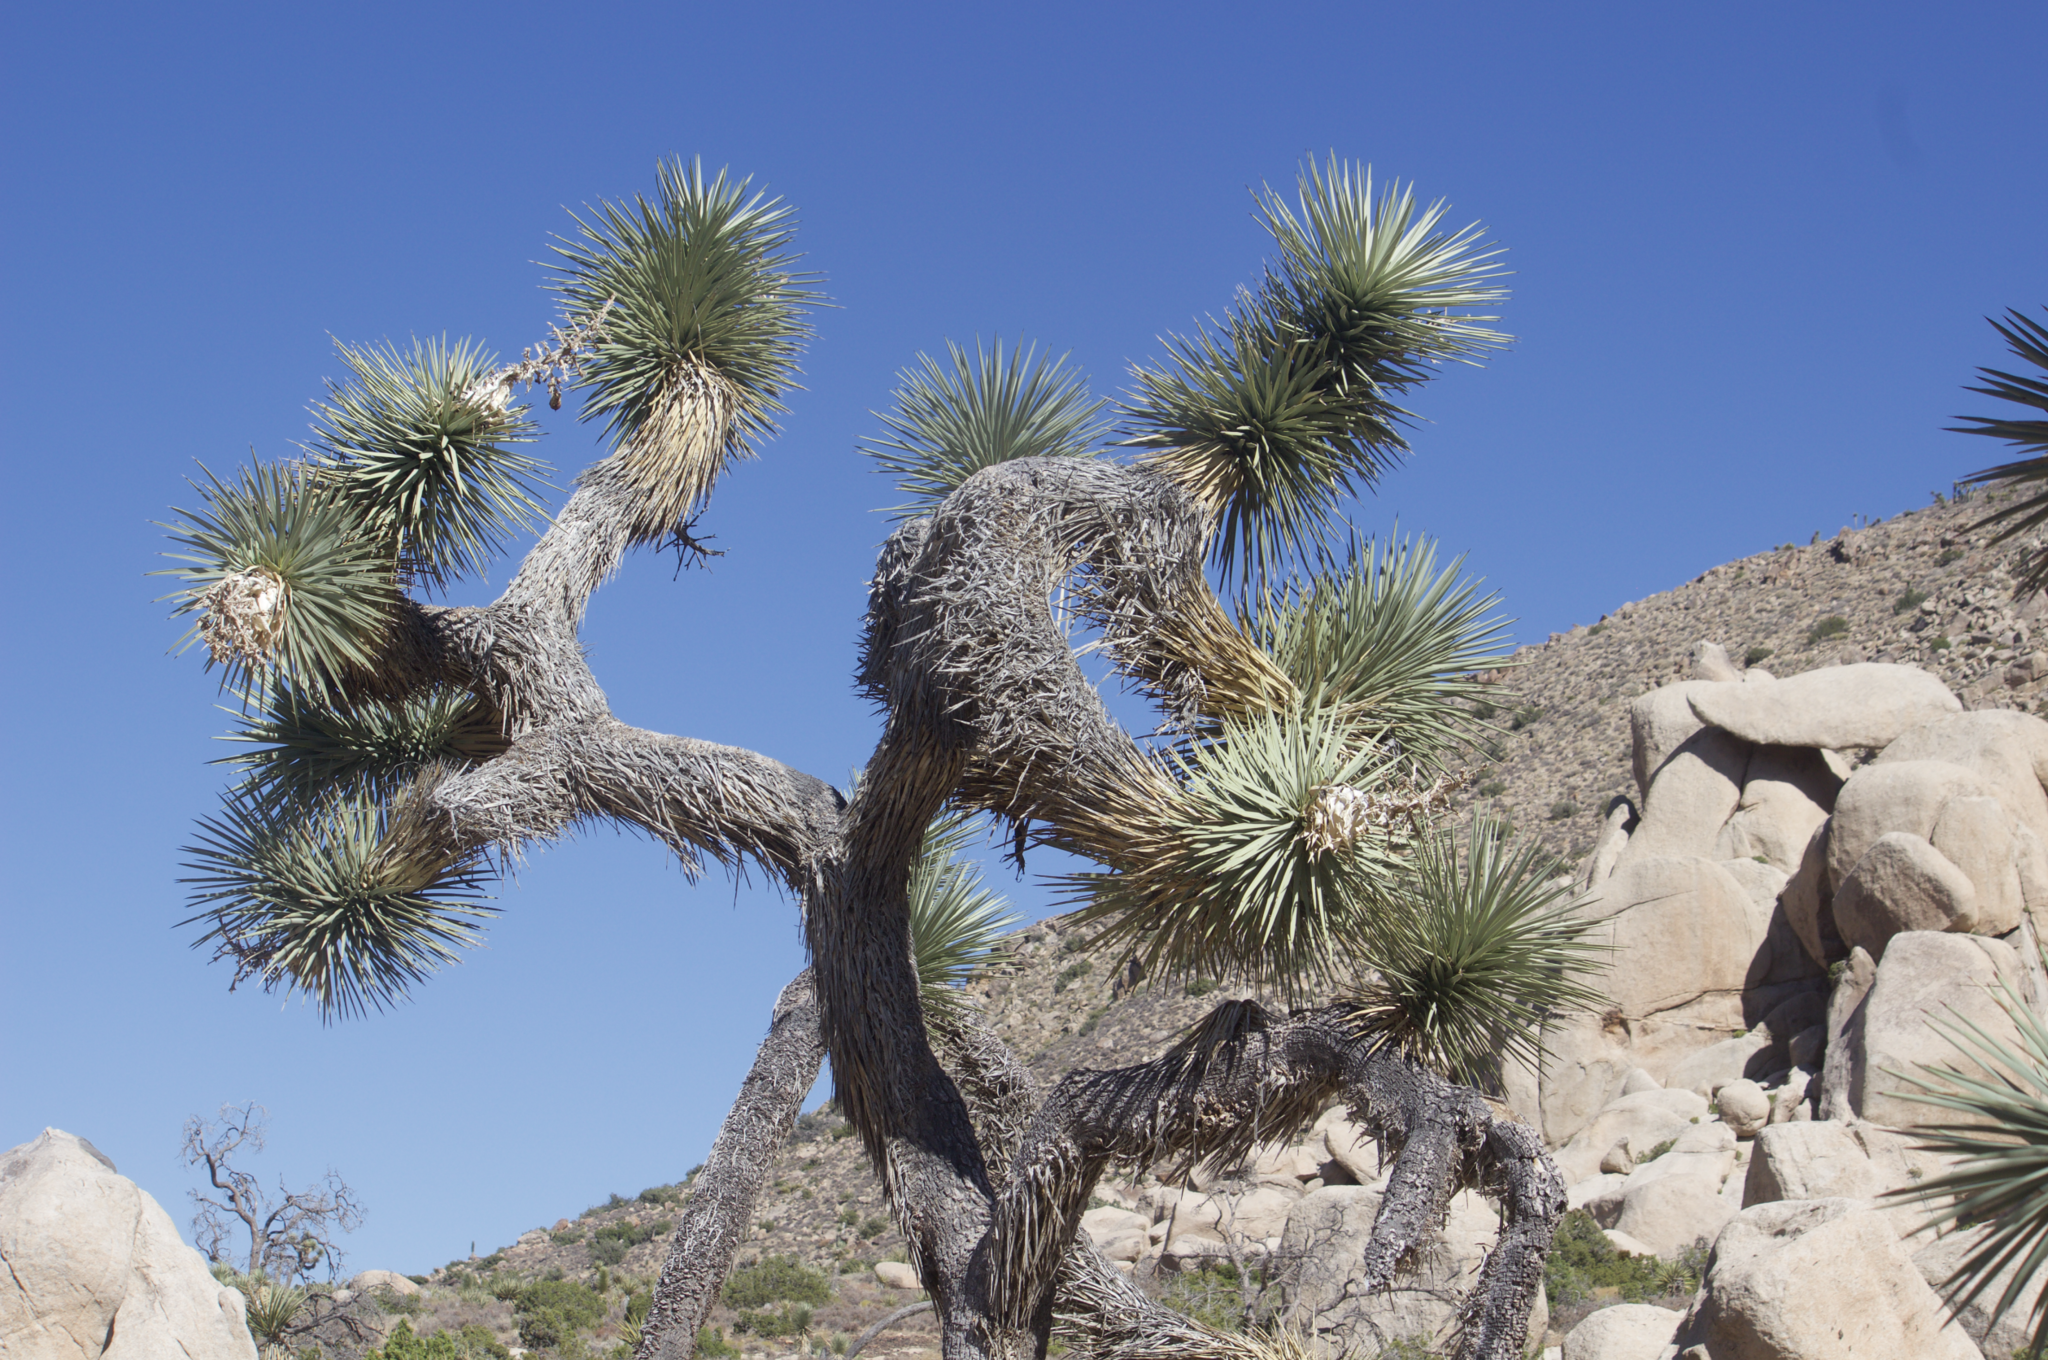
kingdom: Plantae
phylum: Tracheophyta
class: Liliopsida
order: Asparagales
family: Asparagaceae
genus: Yucca
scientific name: Yucca brevifolia
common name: Joshua tree
